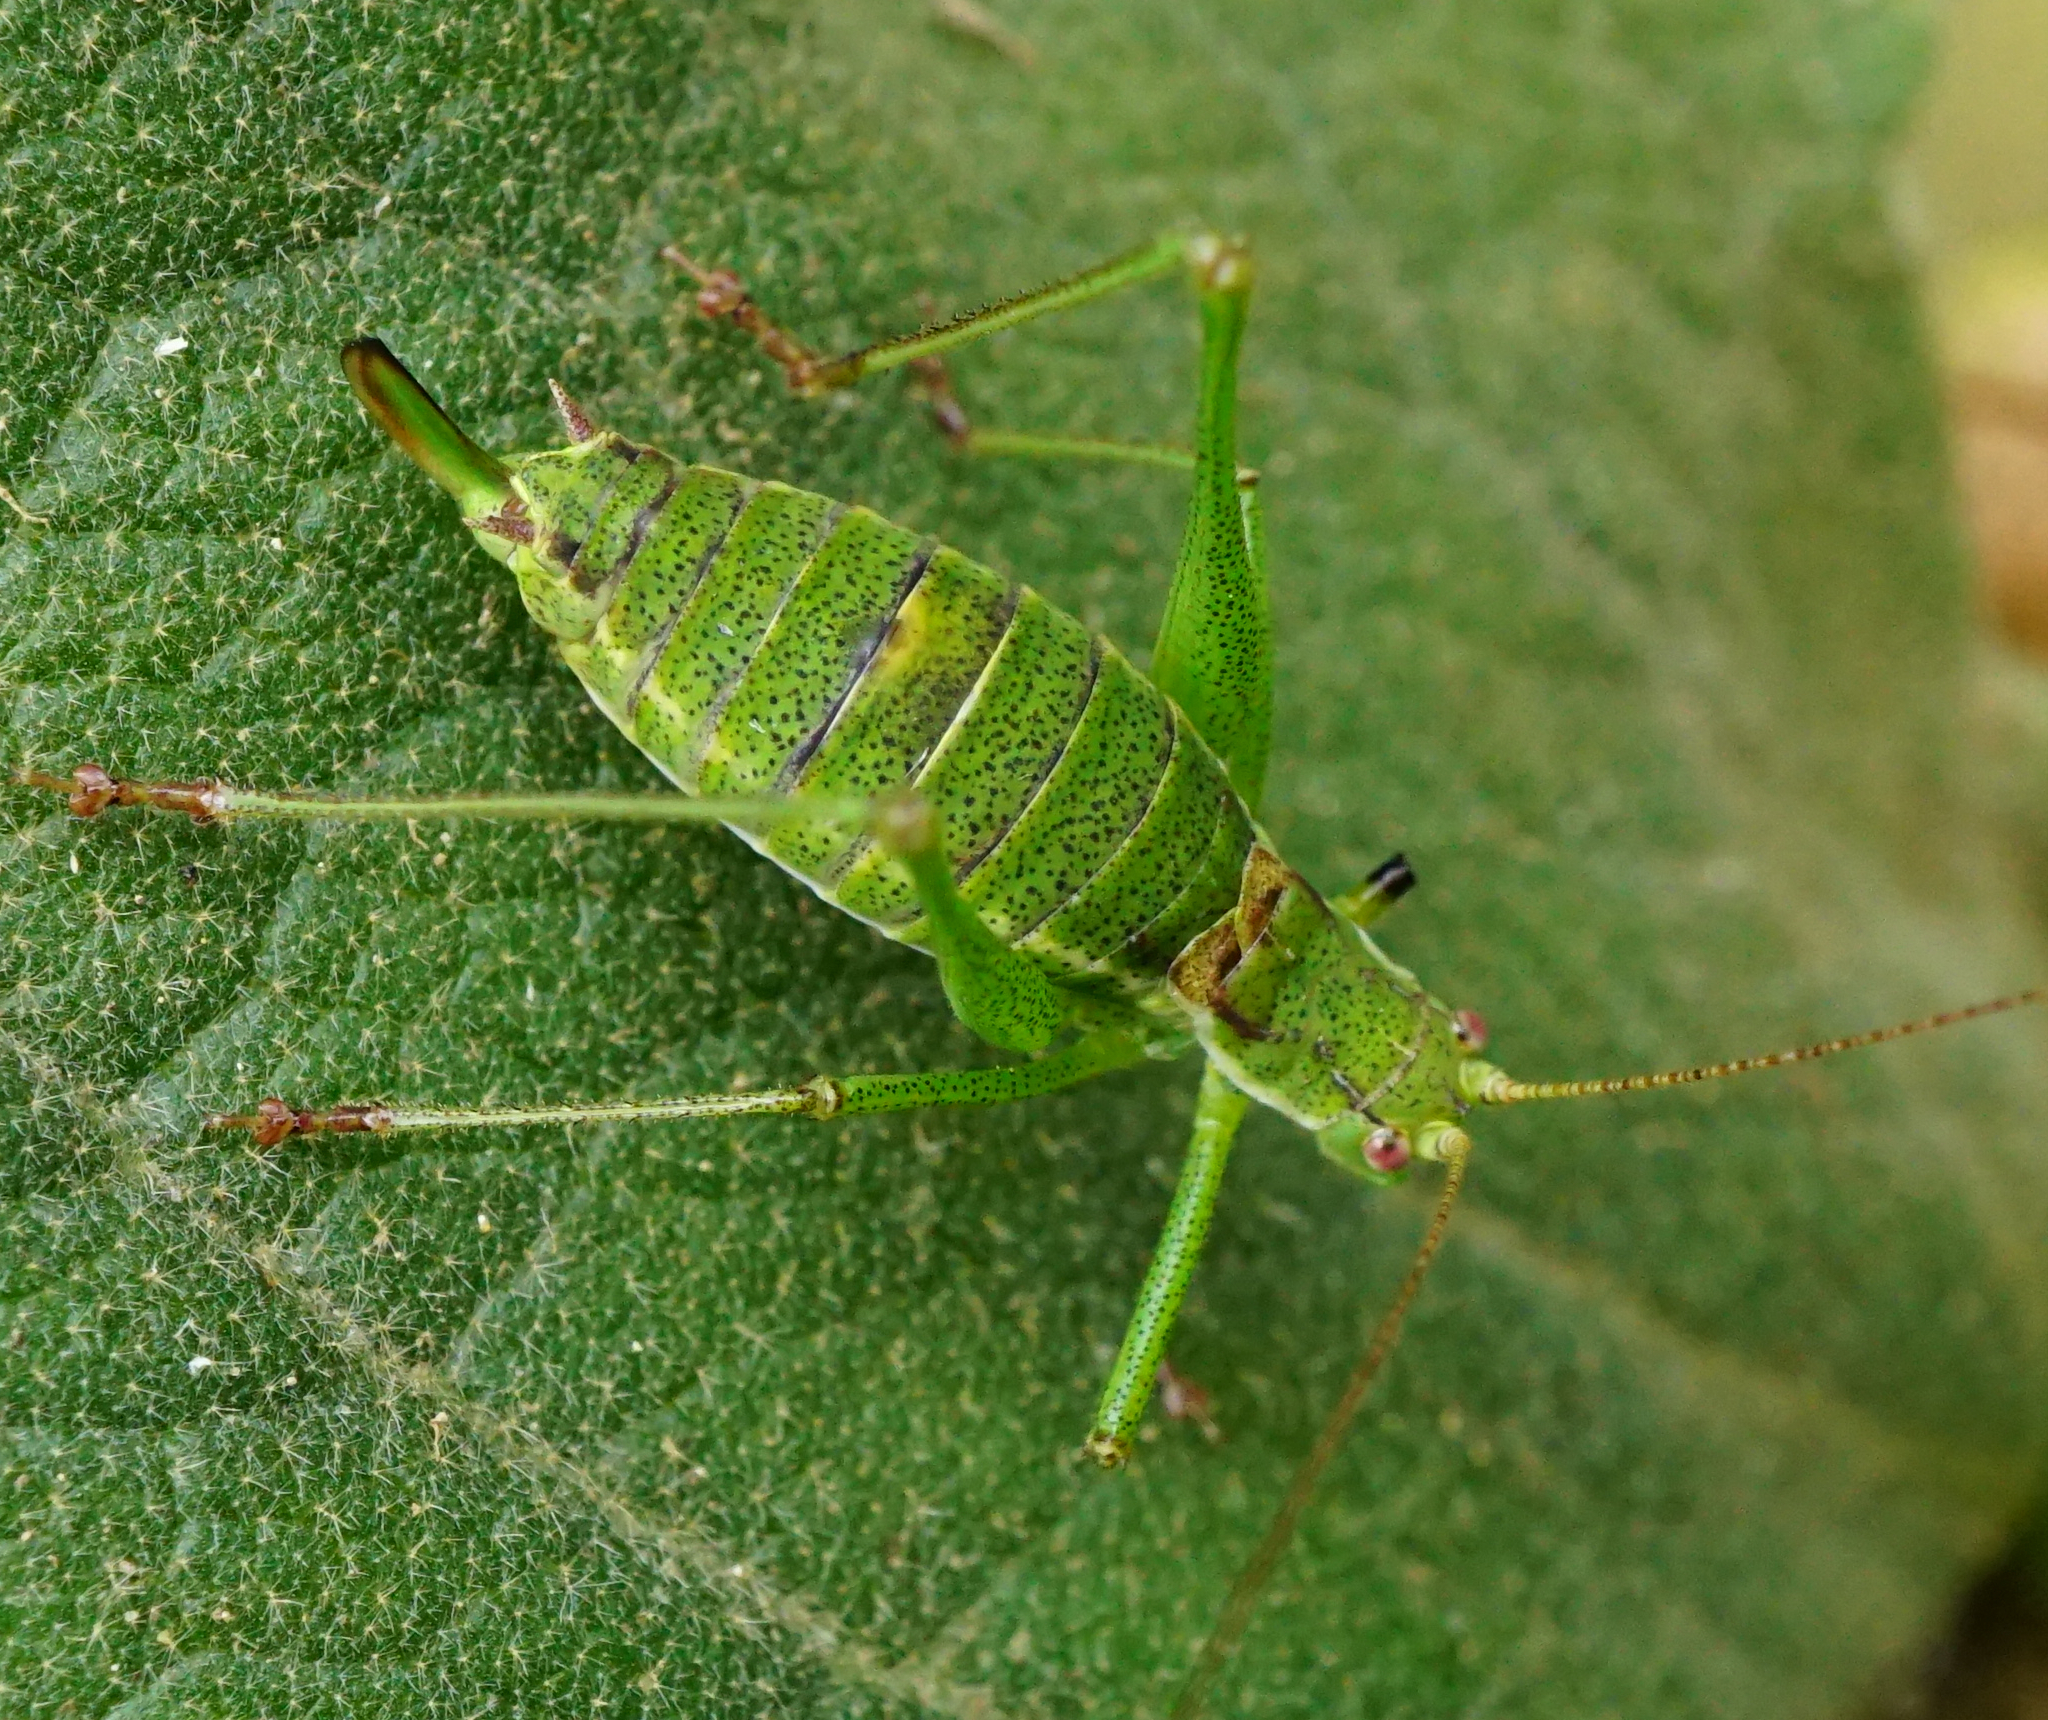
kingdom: Animalia
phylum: Arthropoda
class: Insecta
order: Orthoptera
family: Tettigoniidae
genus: Leptophyes
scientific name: Leptophyes albovittata
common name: Striped bush-cricket
